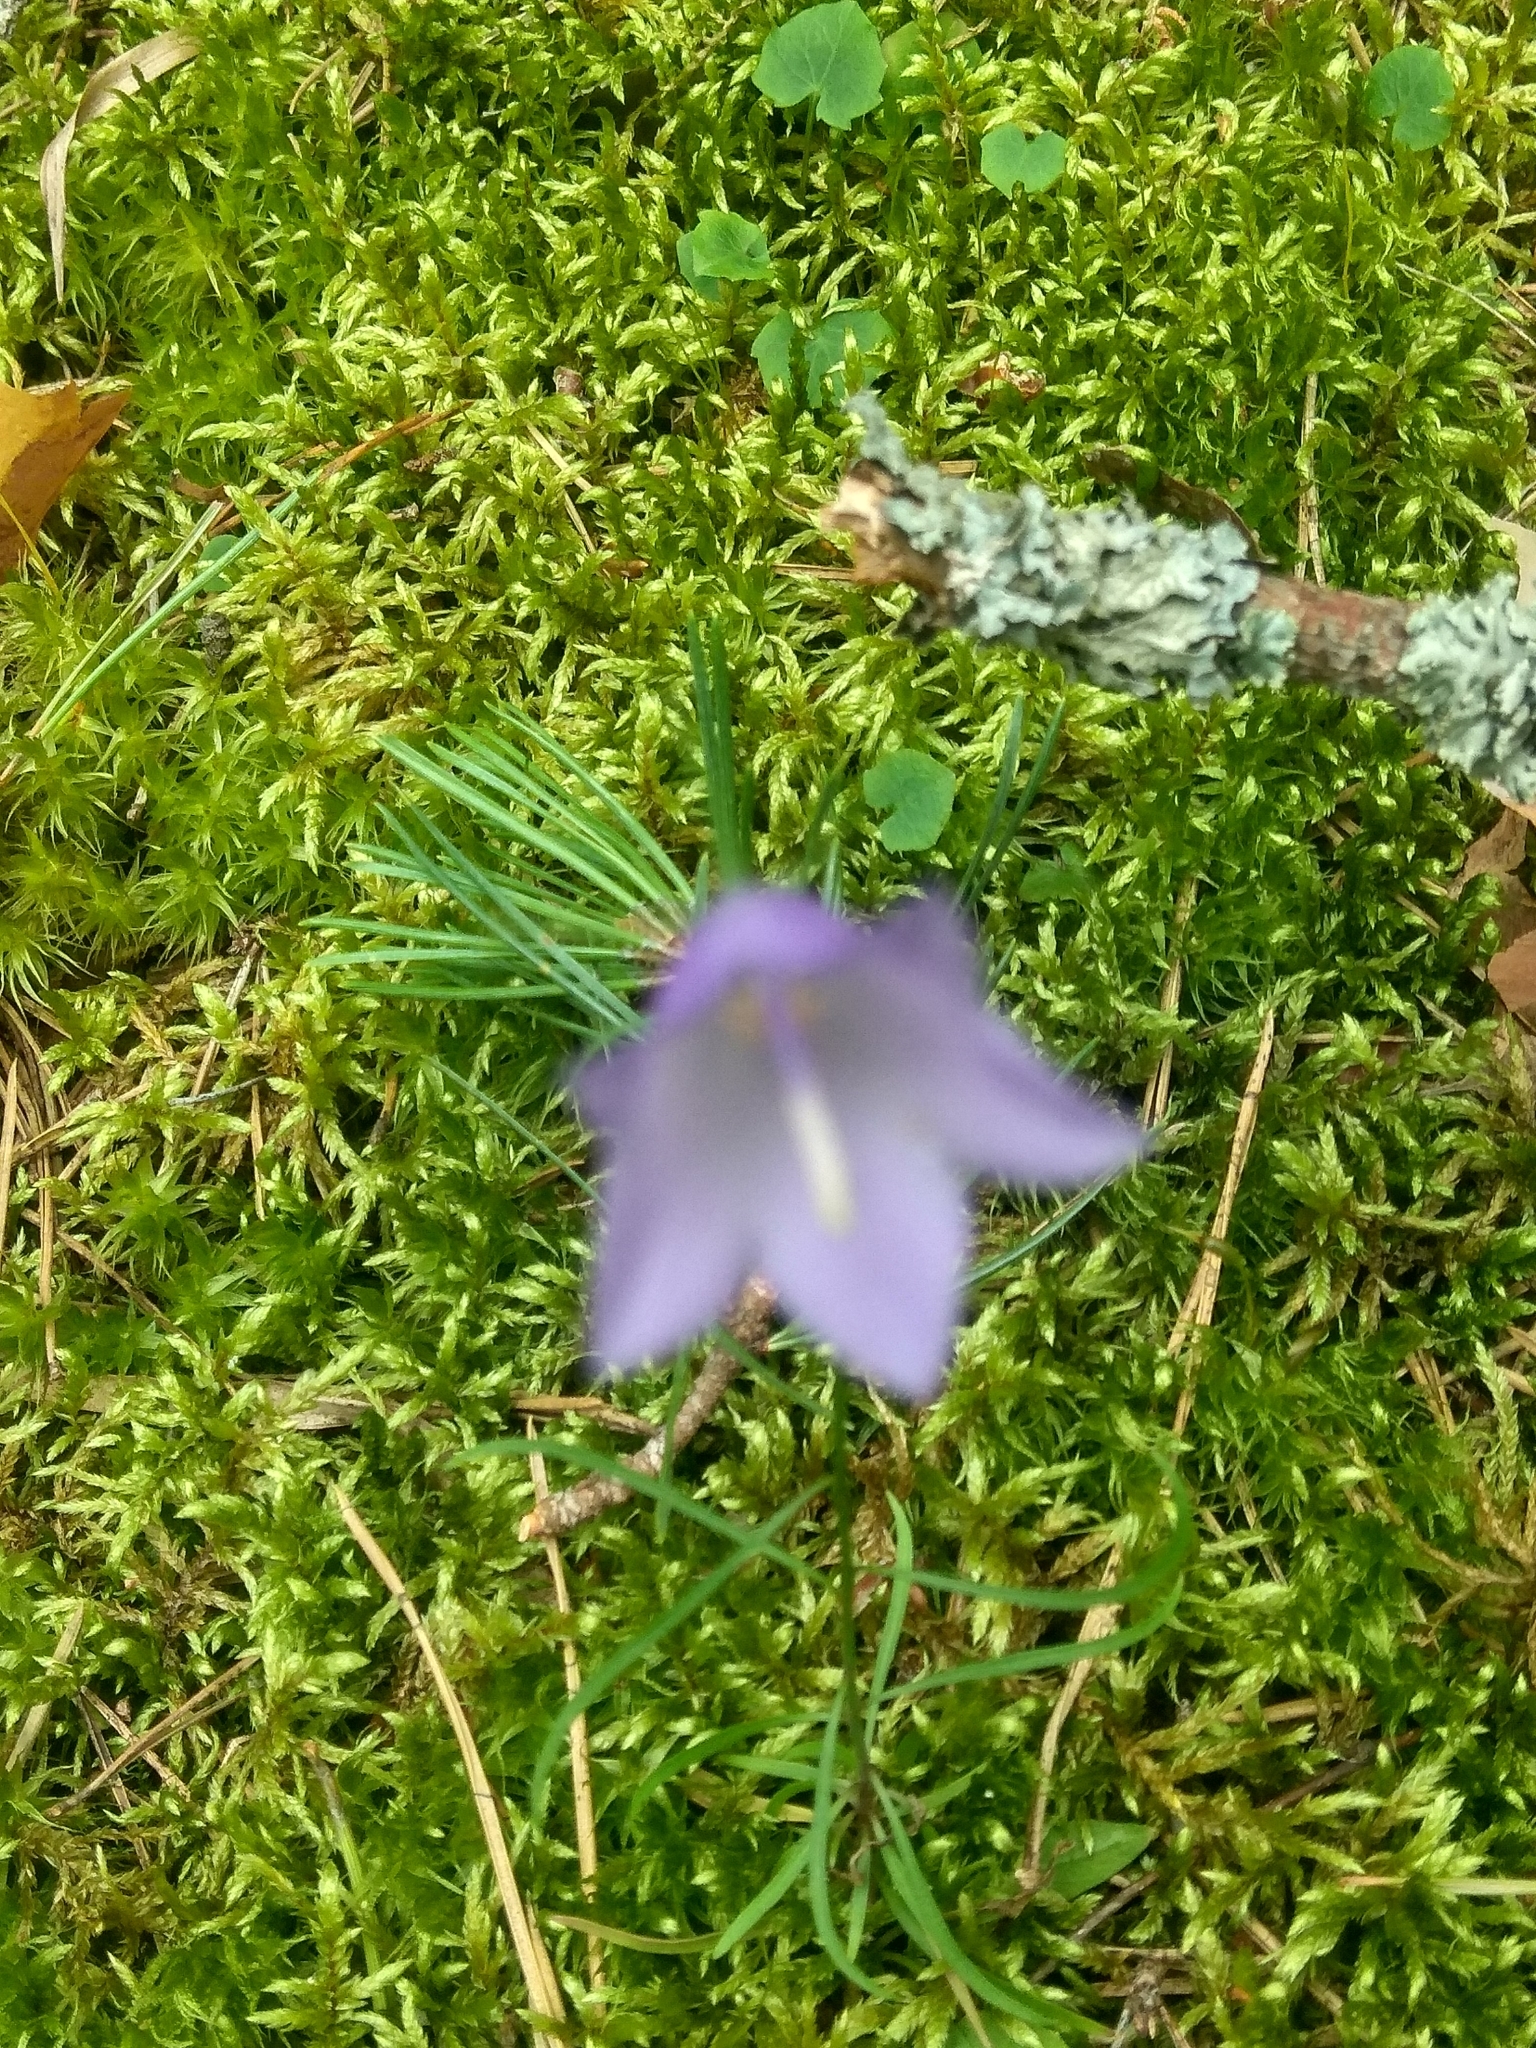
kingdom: Plantae
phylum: Tracheophyta
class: Magnoliopsida
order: Asterales
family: Campanulaceae
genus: Campanula
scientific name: Campanula rotundifolia
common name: Harebell
